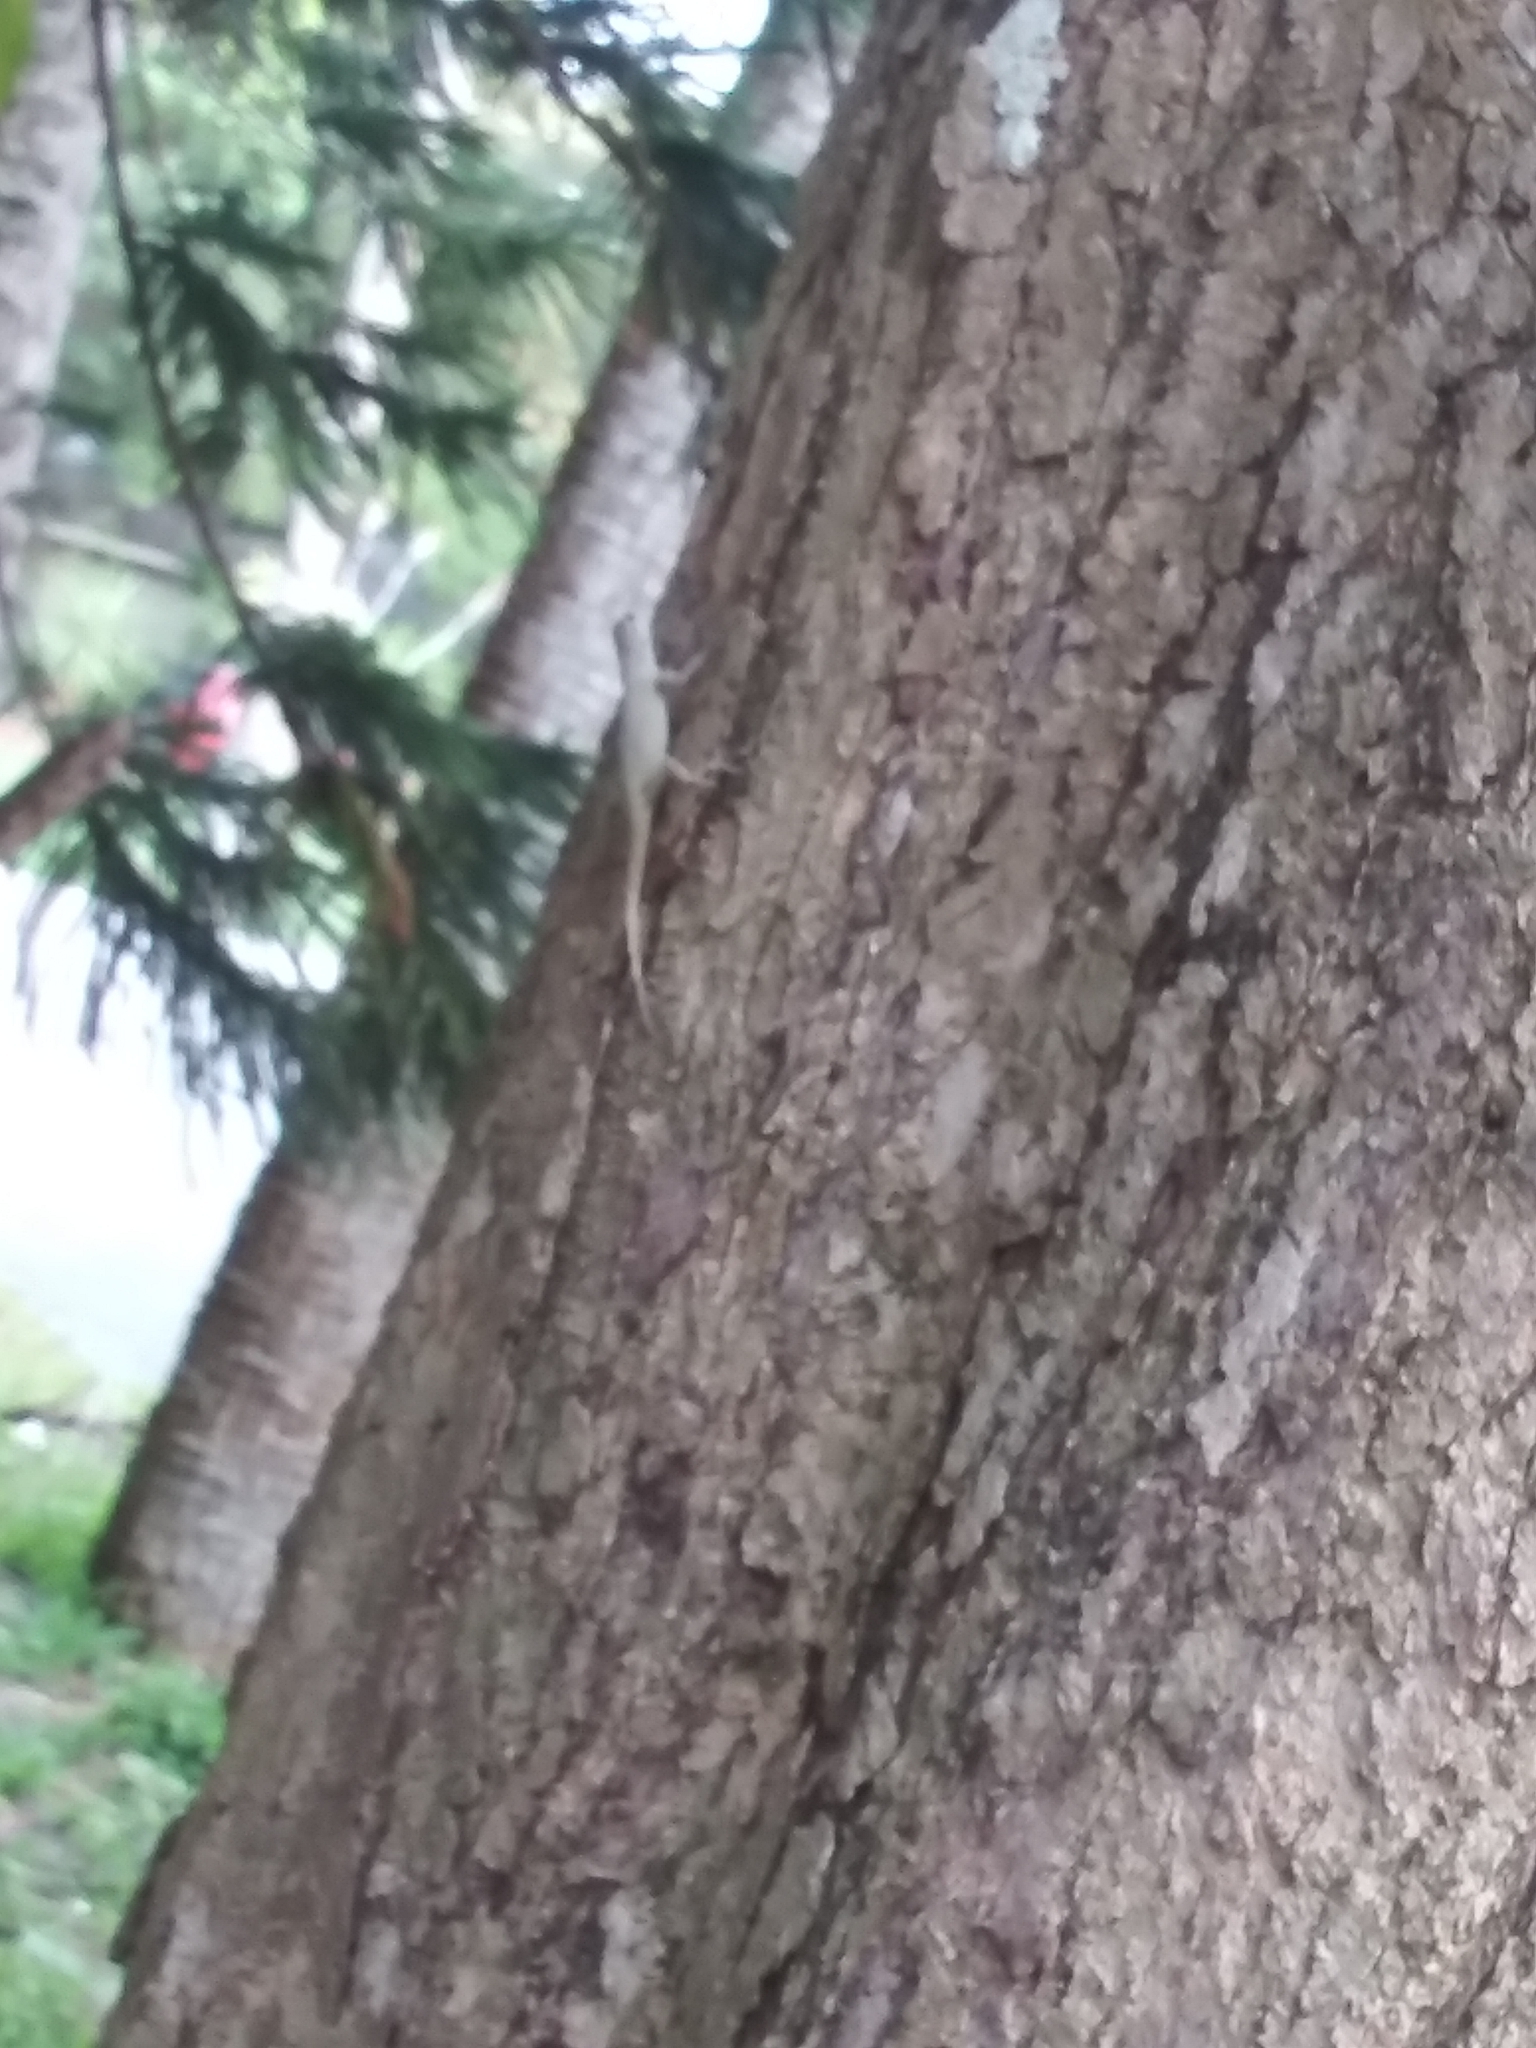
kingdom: Animalia
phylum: Chordata
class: Squamata
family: Dactyloidae
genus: Anolis
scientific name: Anolis distichus
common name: Bark anole
